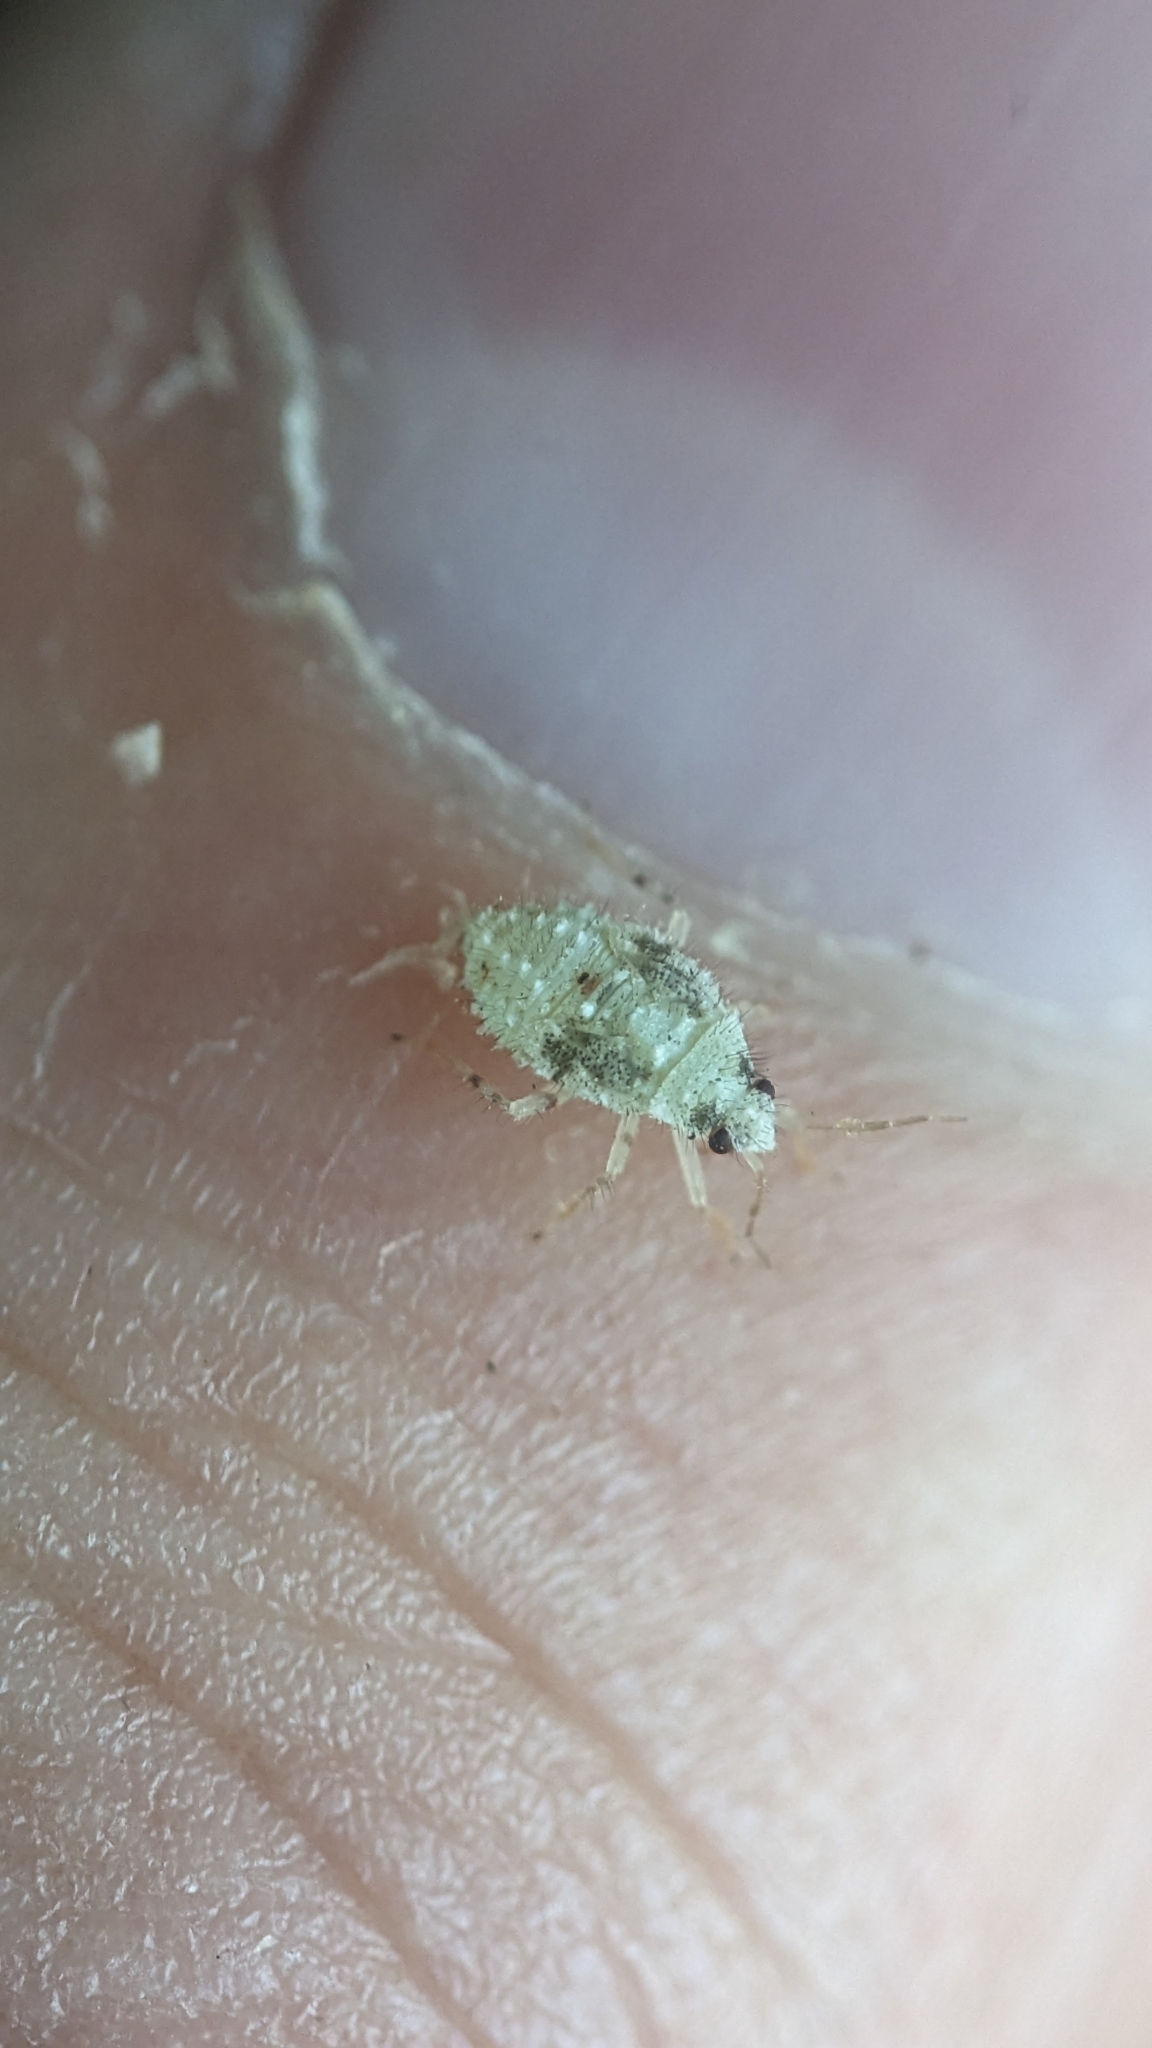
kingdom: Animalia
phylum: Arthropoda
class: Insecta
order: Hemiptera
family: Miridae
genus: Deraeocoris
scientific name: Deraeocoris lutescens
